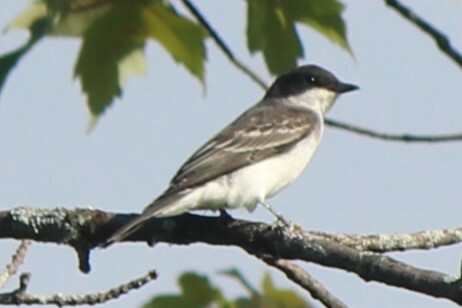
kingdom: Animalia
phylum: Chordata
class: Aves
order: Passeriformes
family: Tyrannidae
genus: Tyrannus
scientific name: Tyrannus tyrannus
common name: Eastern kingbird
